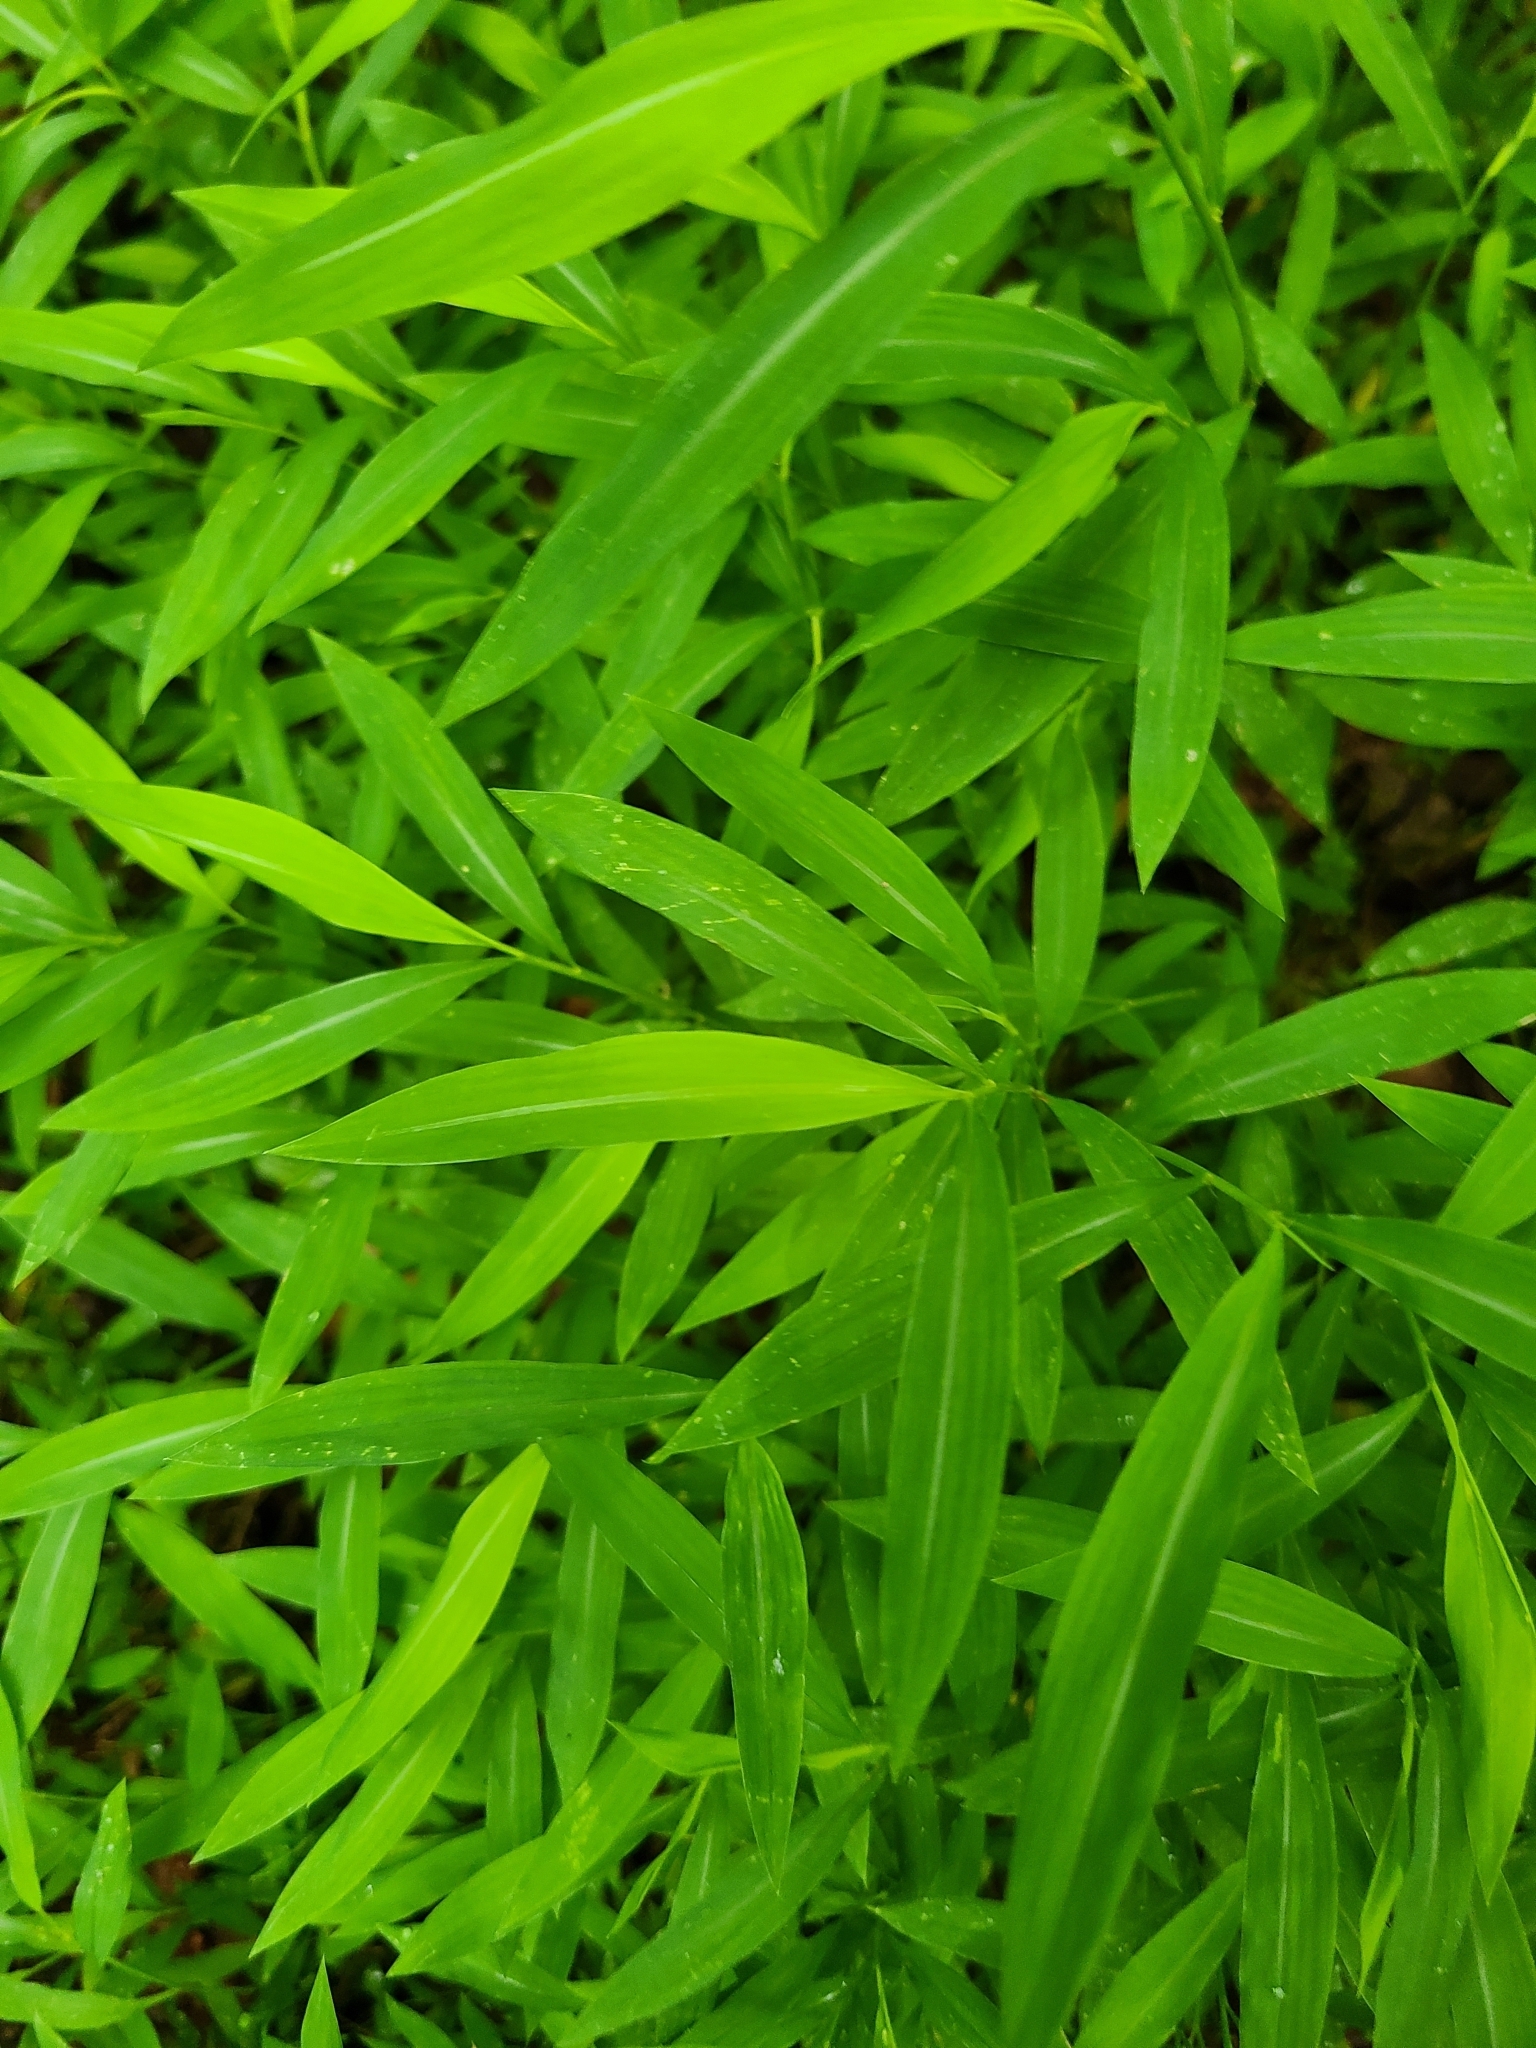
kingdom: Plantae
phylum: Tracheophyta
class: Liliopsida
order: Poales
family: Poaceae
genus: Microstegium
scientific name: Microstegium vimineum
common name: Japanese stiltgrass
